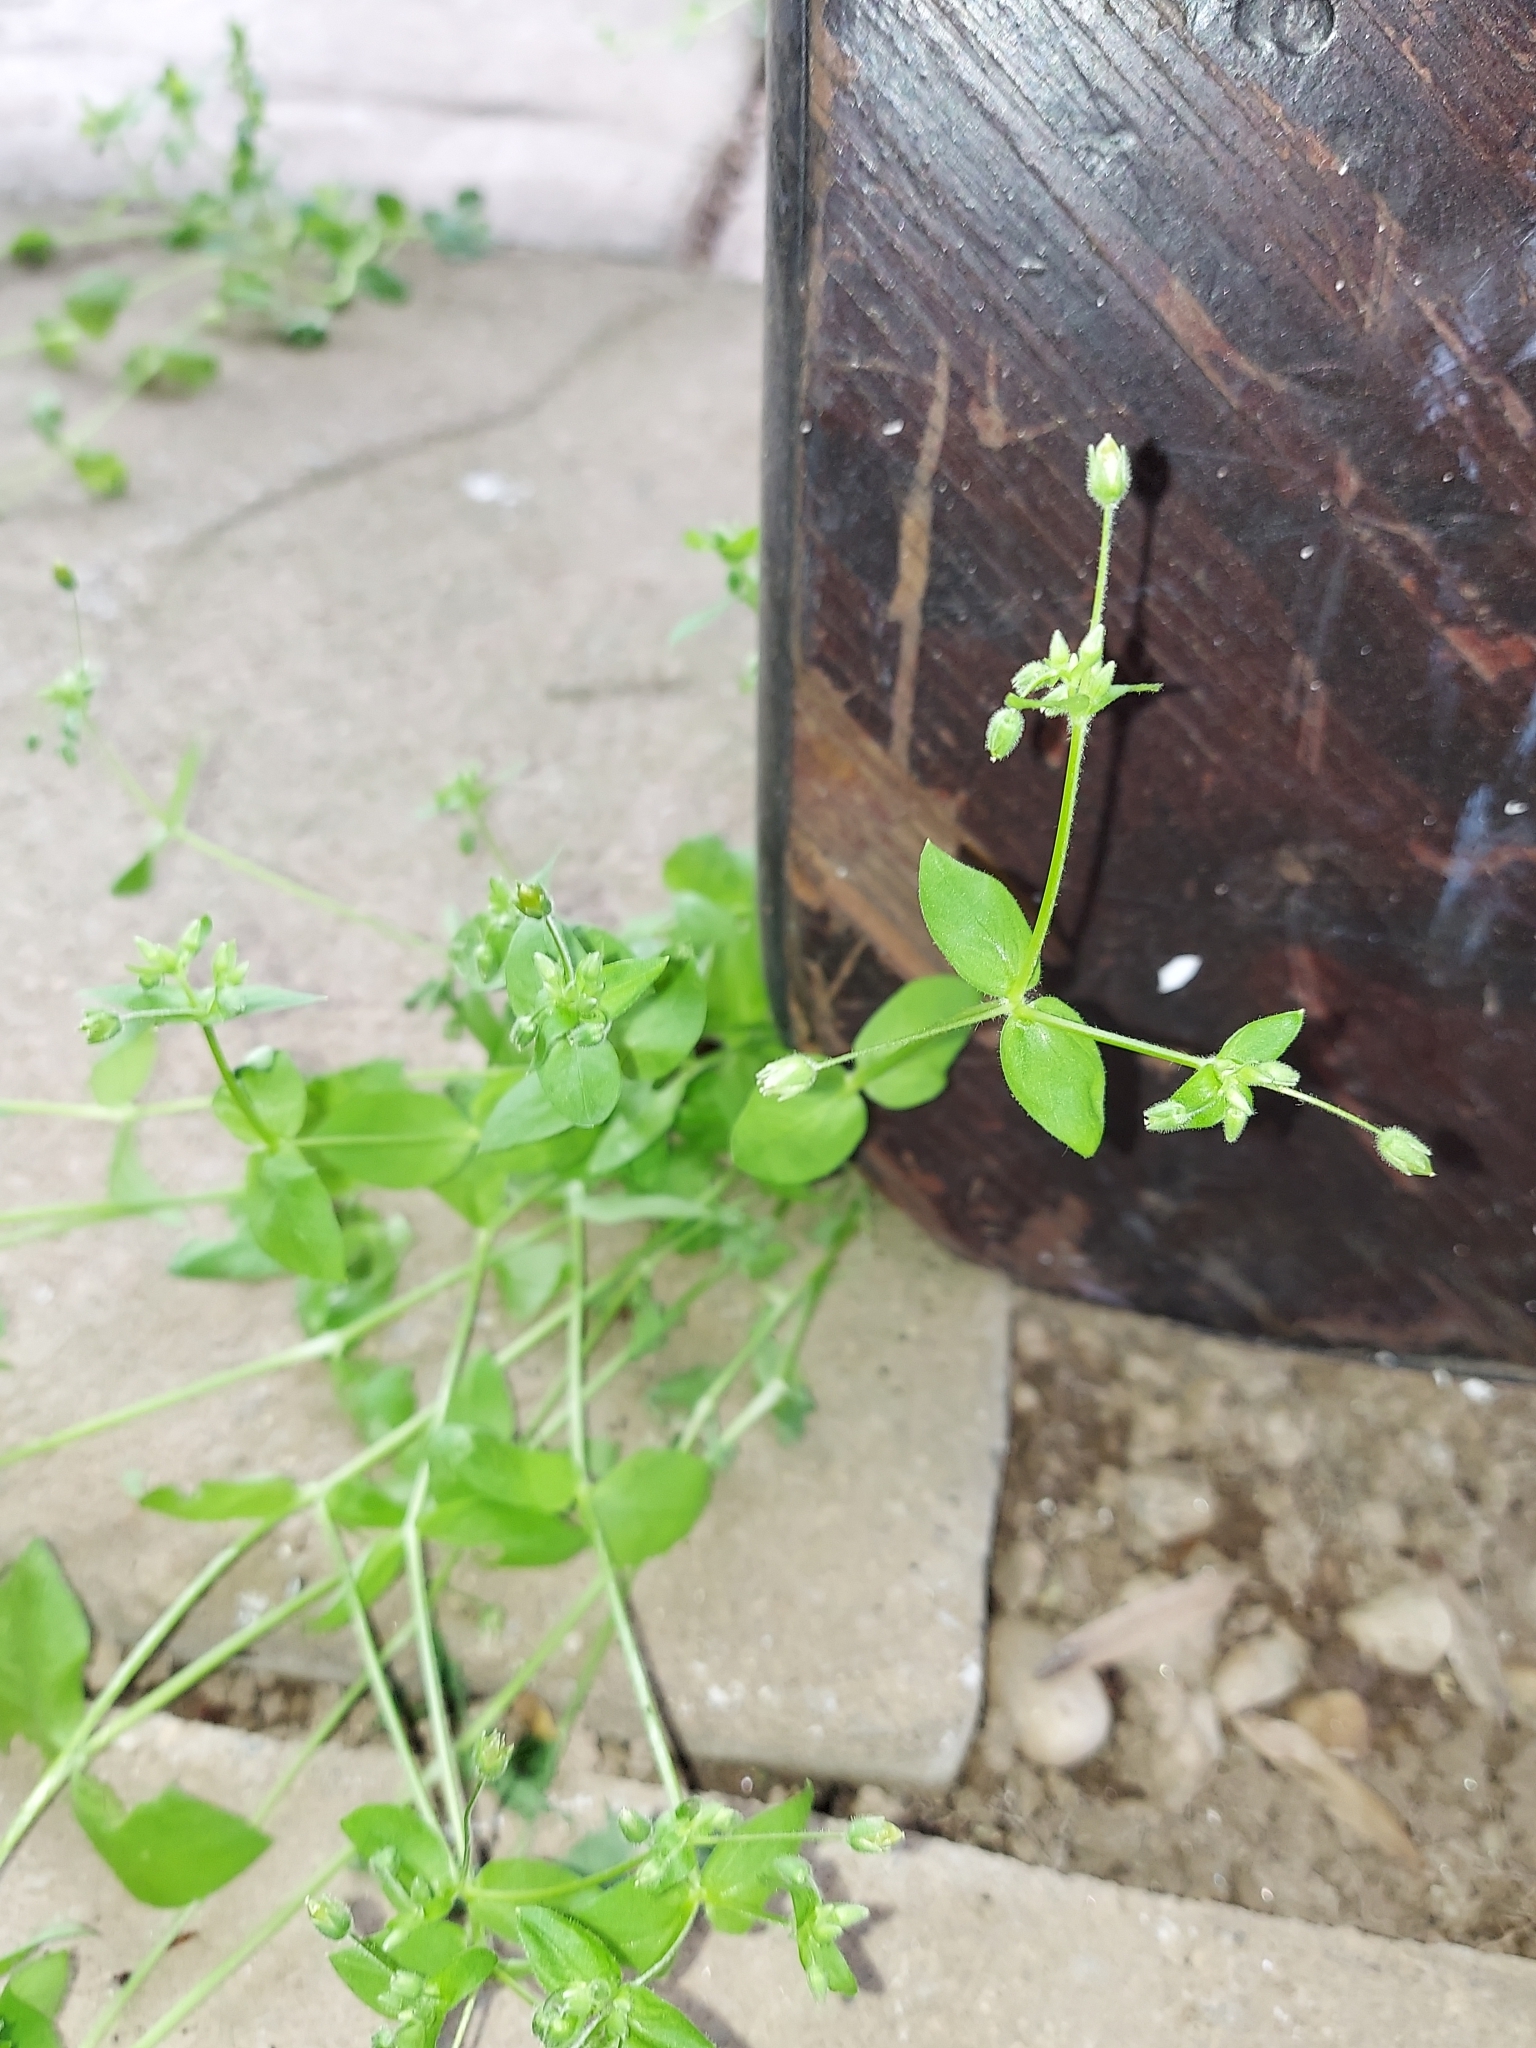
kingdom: Plantae
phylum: Tracheophyta
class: Magnoliopsida
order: Caryophyllales
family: Caryophyllaceae
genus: Stellaria
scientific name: Stellaria media
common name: Common chickweed
